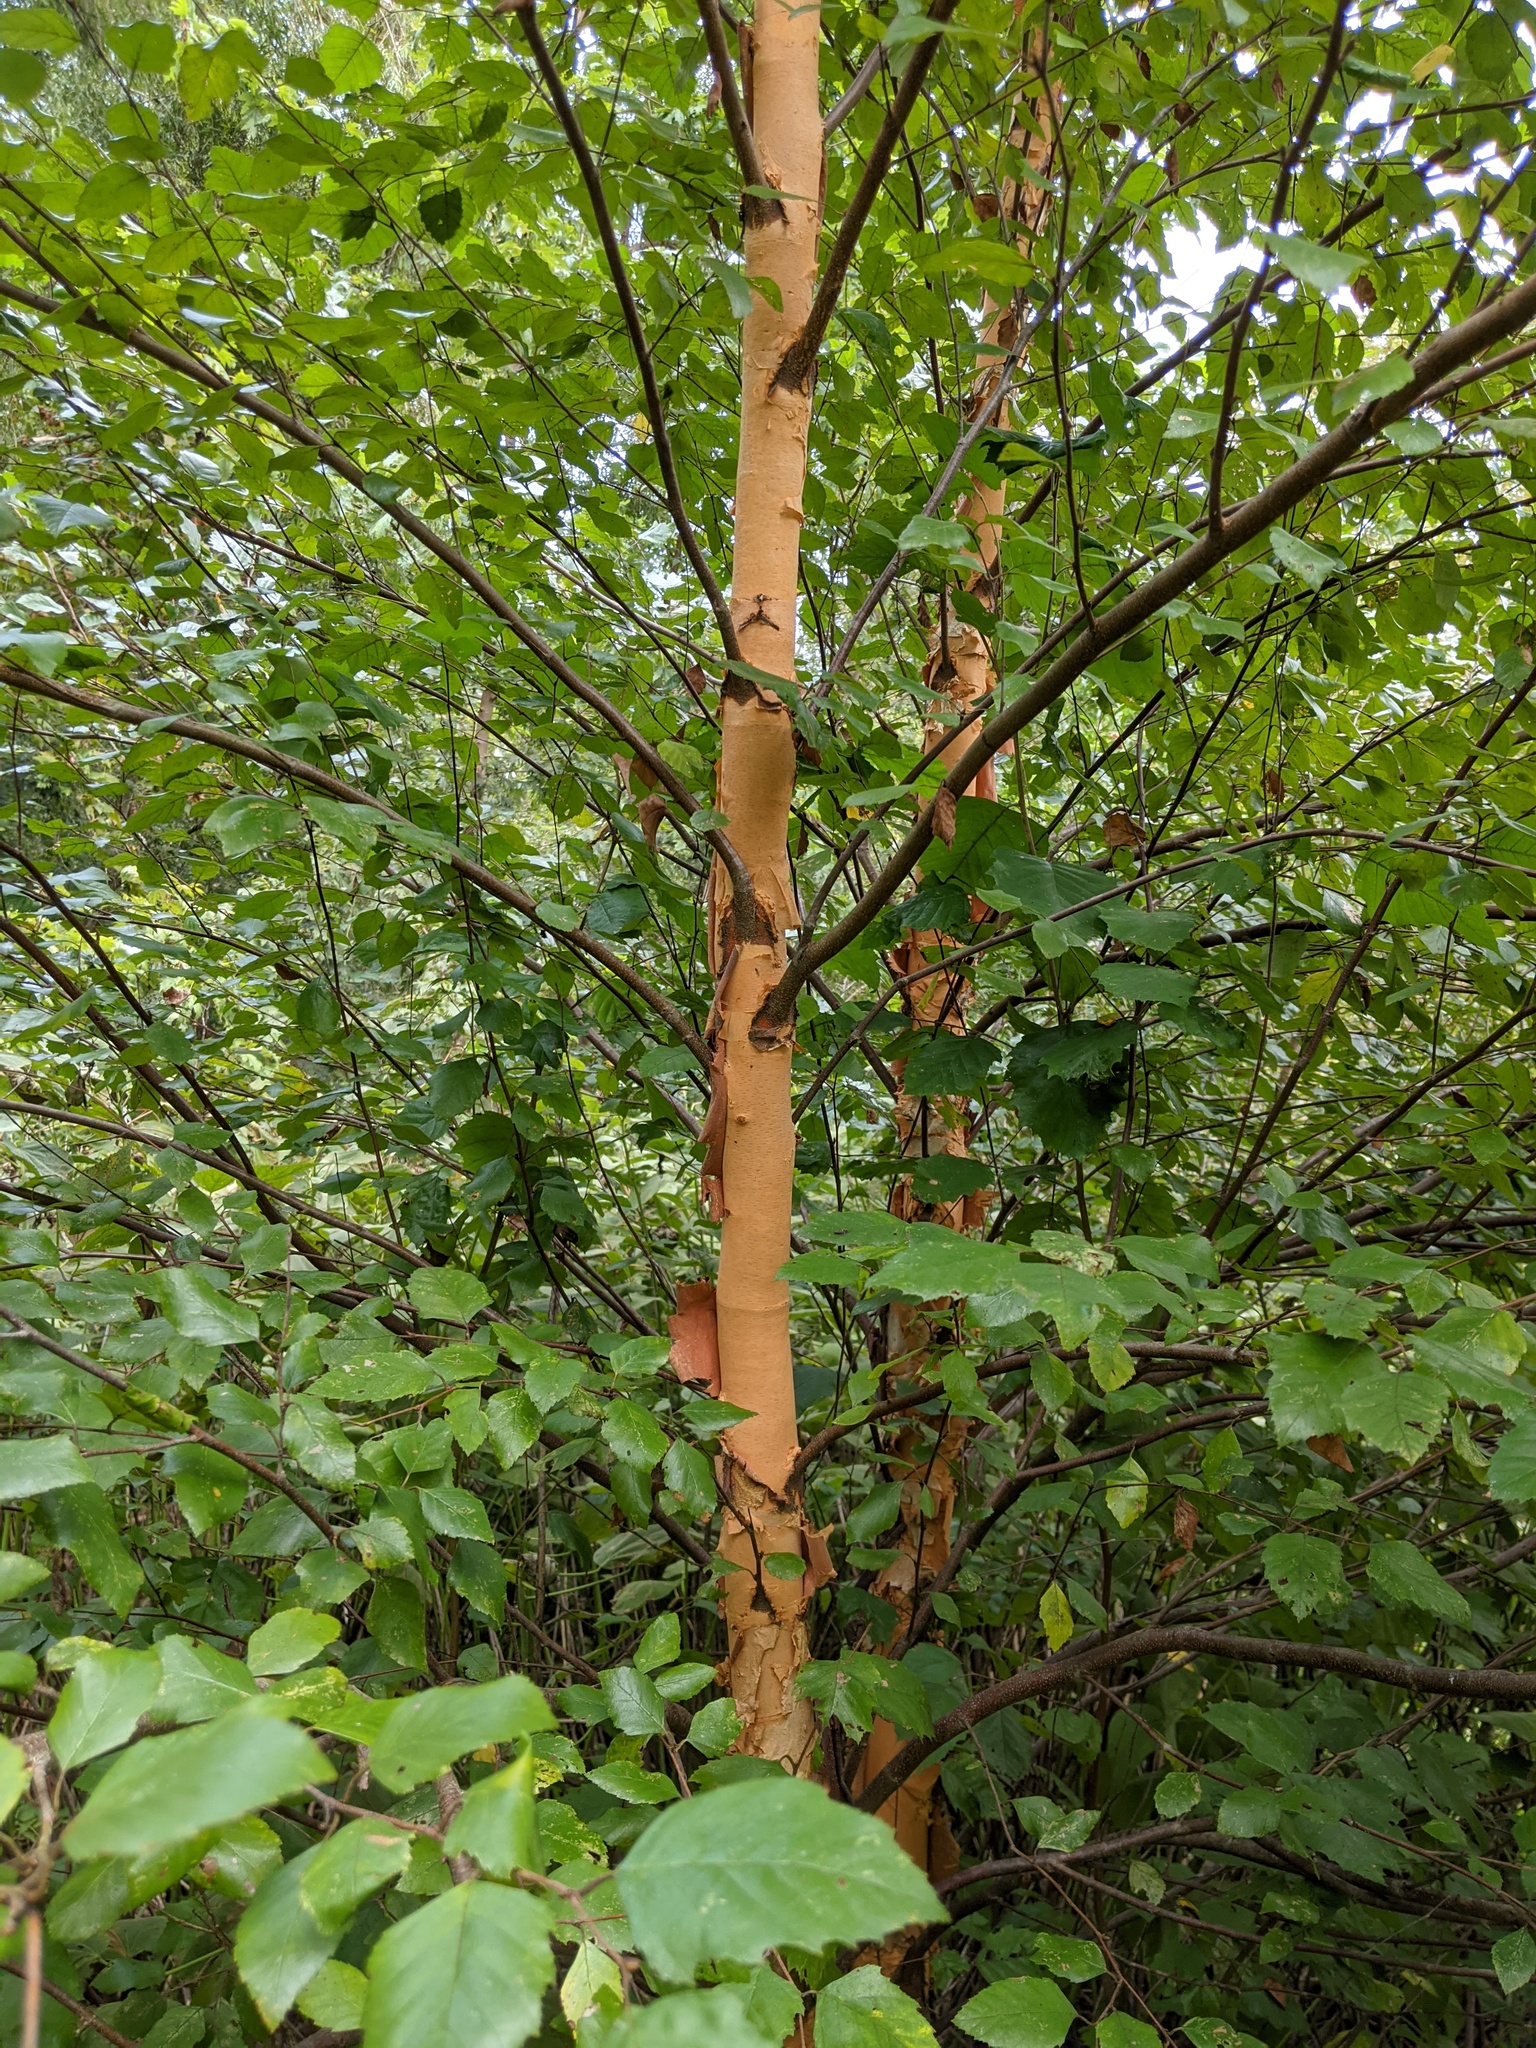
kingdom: Plantae
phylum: Tracheophyta
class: Magnoliopsida
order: Fagales
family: Betulaceae
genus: Betula
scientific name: Betula nigra
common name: Black birch
